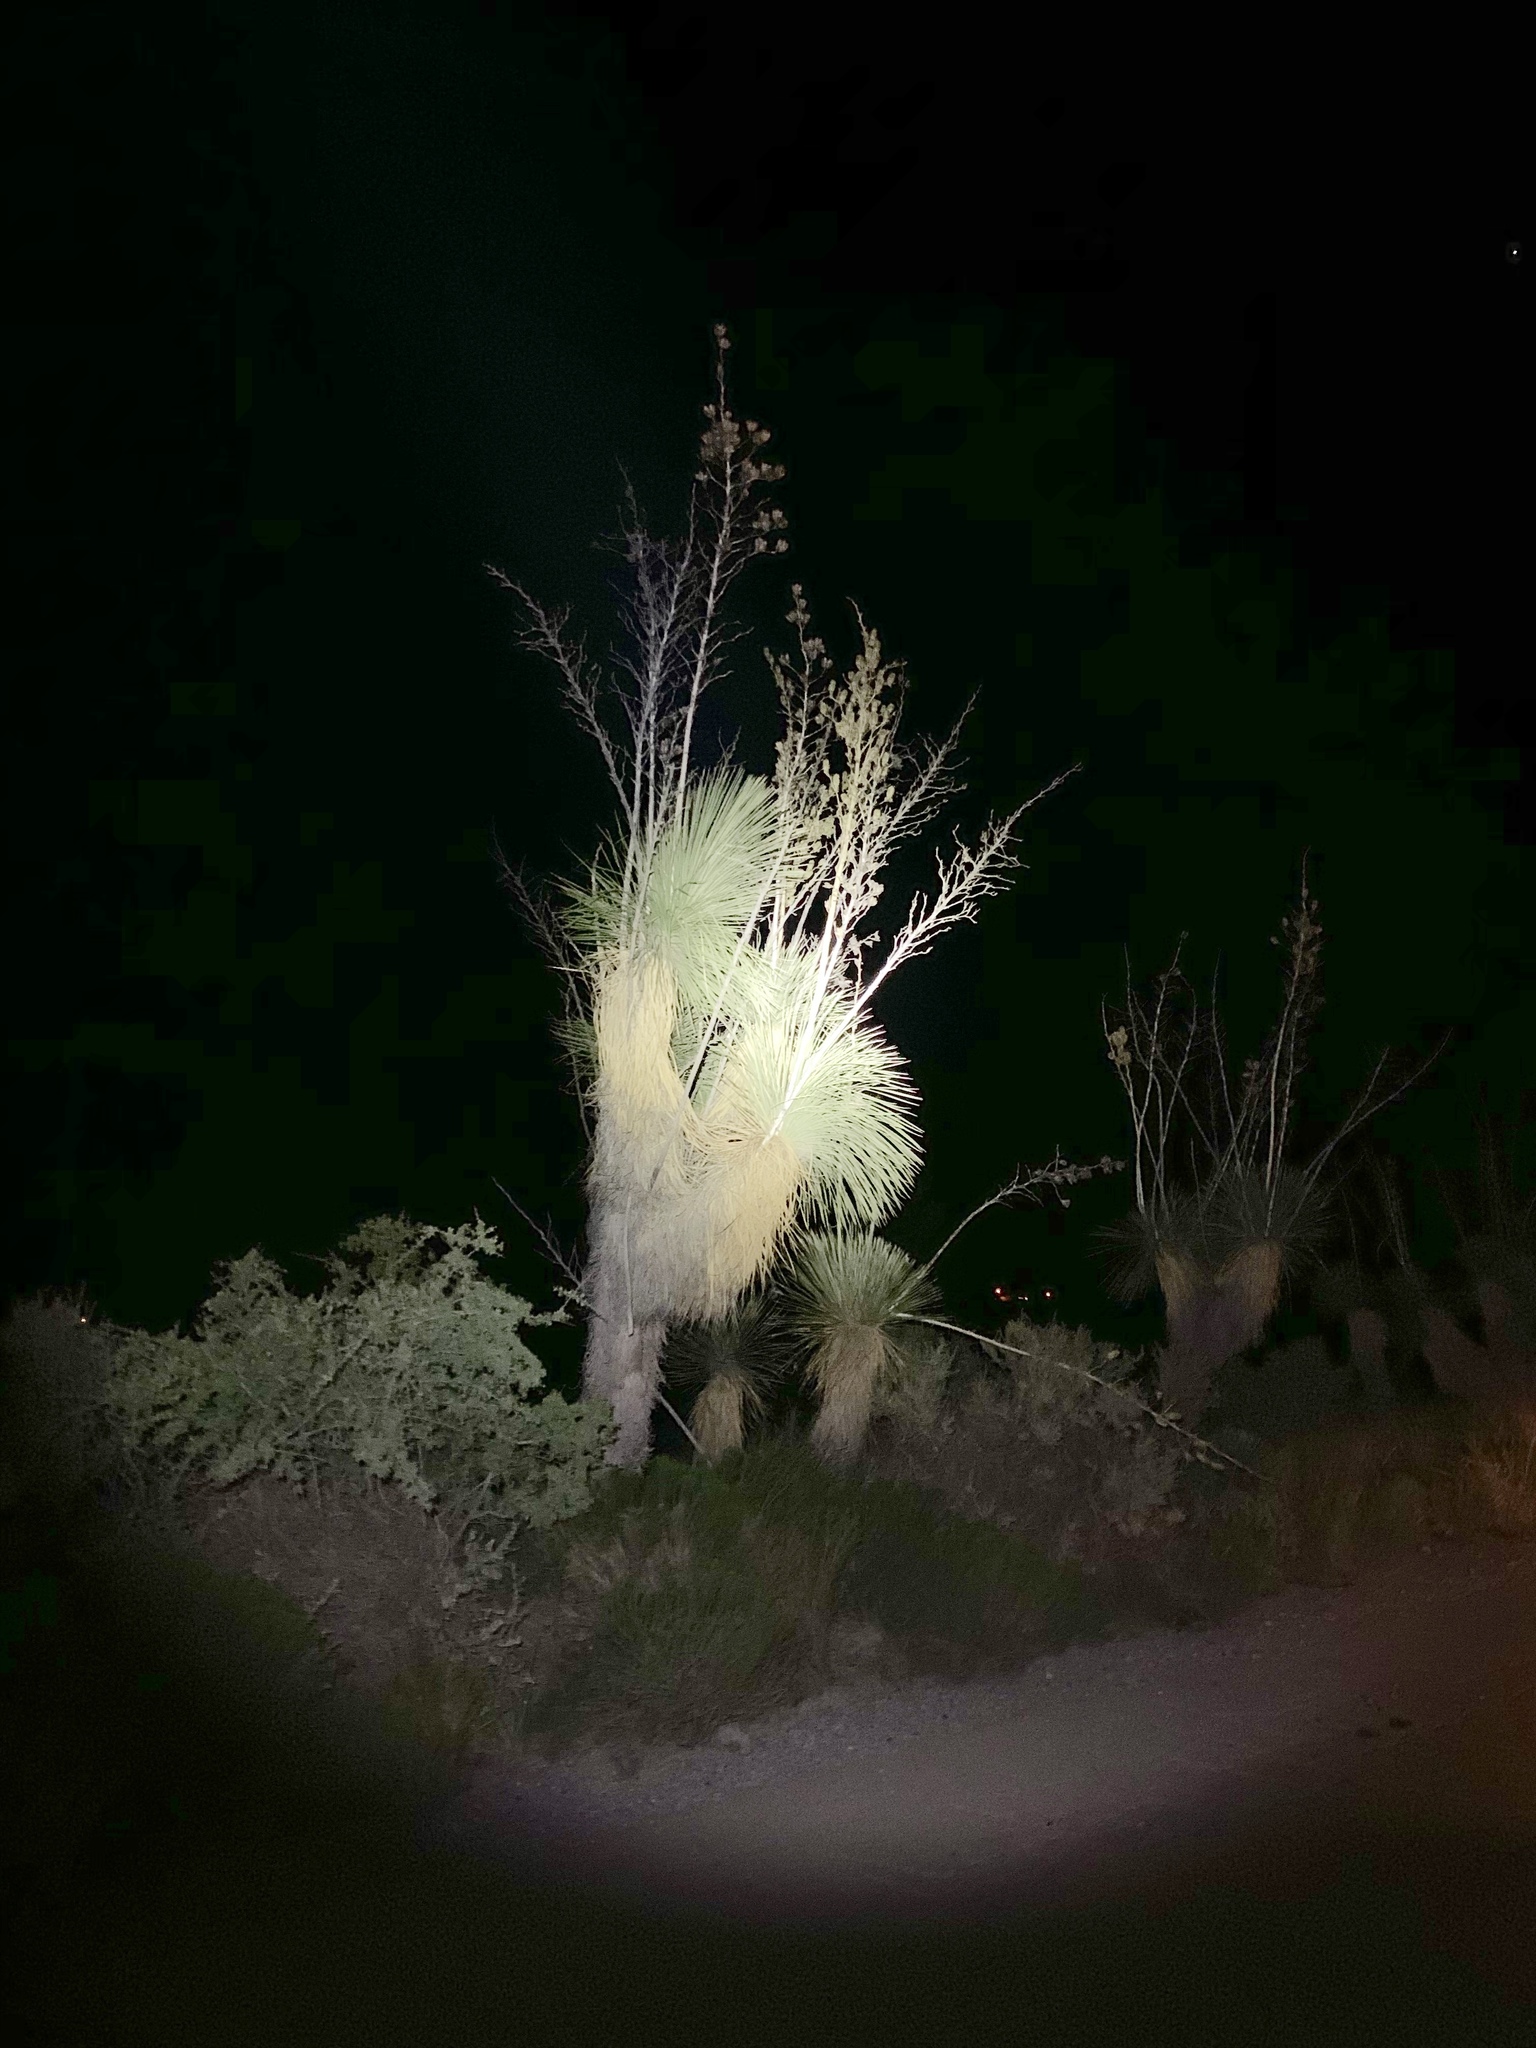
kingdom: Plantae
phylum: Tracheophyta
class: Liliopsida
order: Asparagales
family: Asparagaceae
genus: Yucca
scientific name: Yucca elata
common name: Palmella
